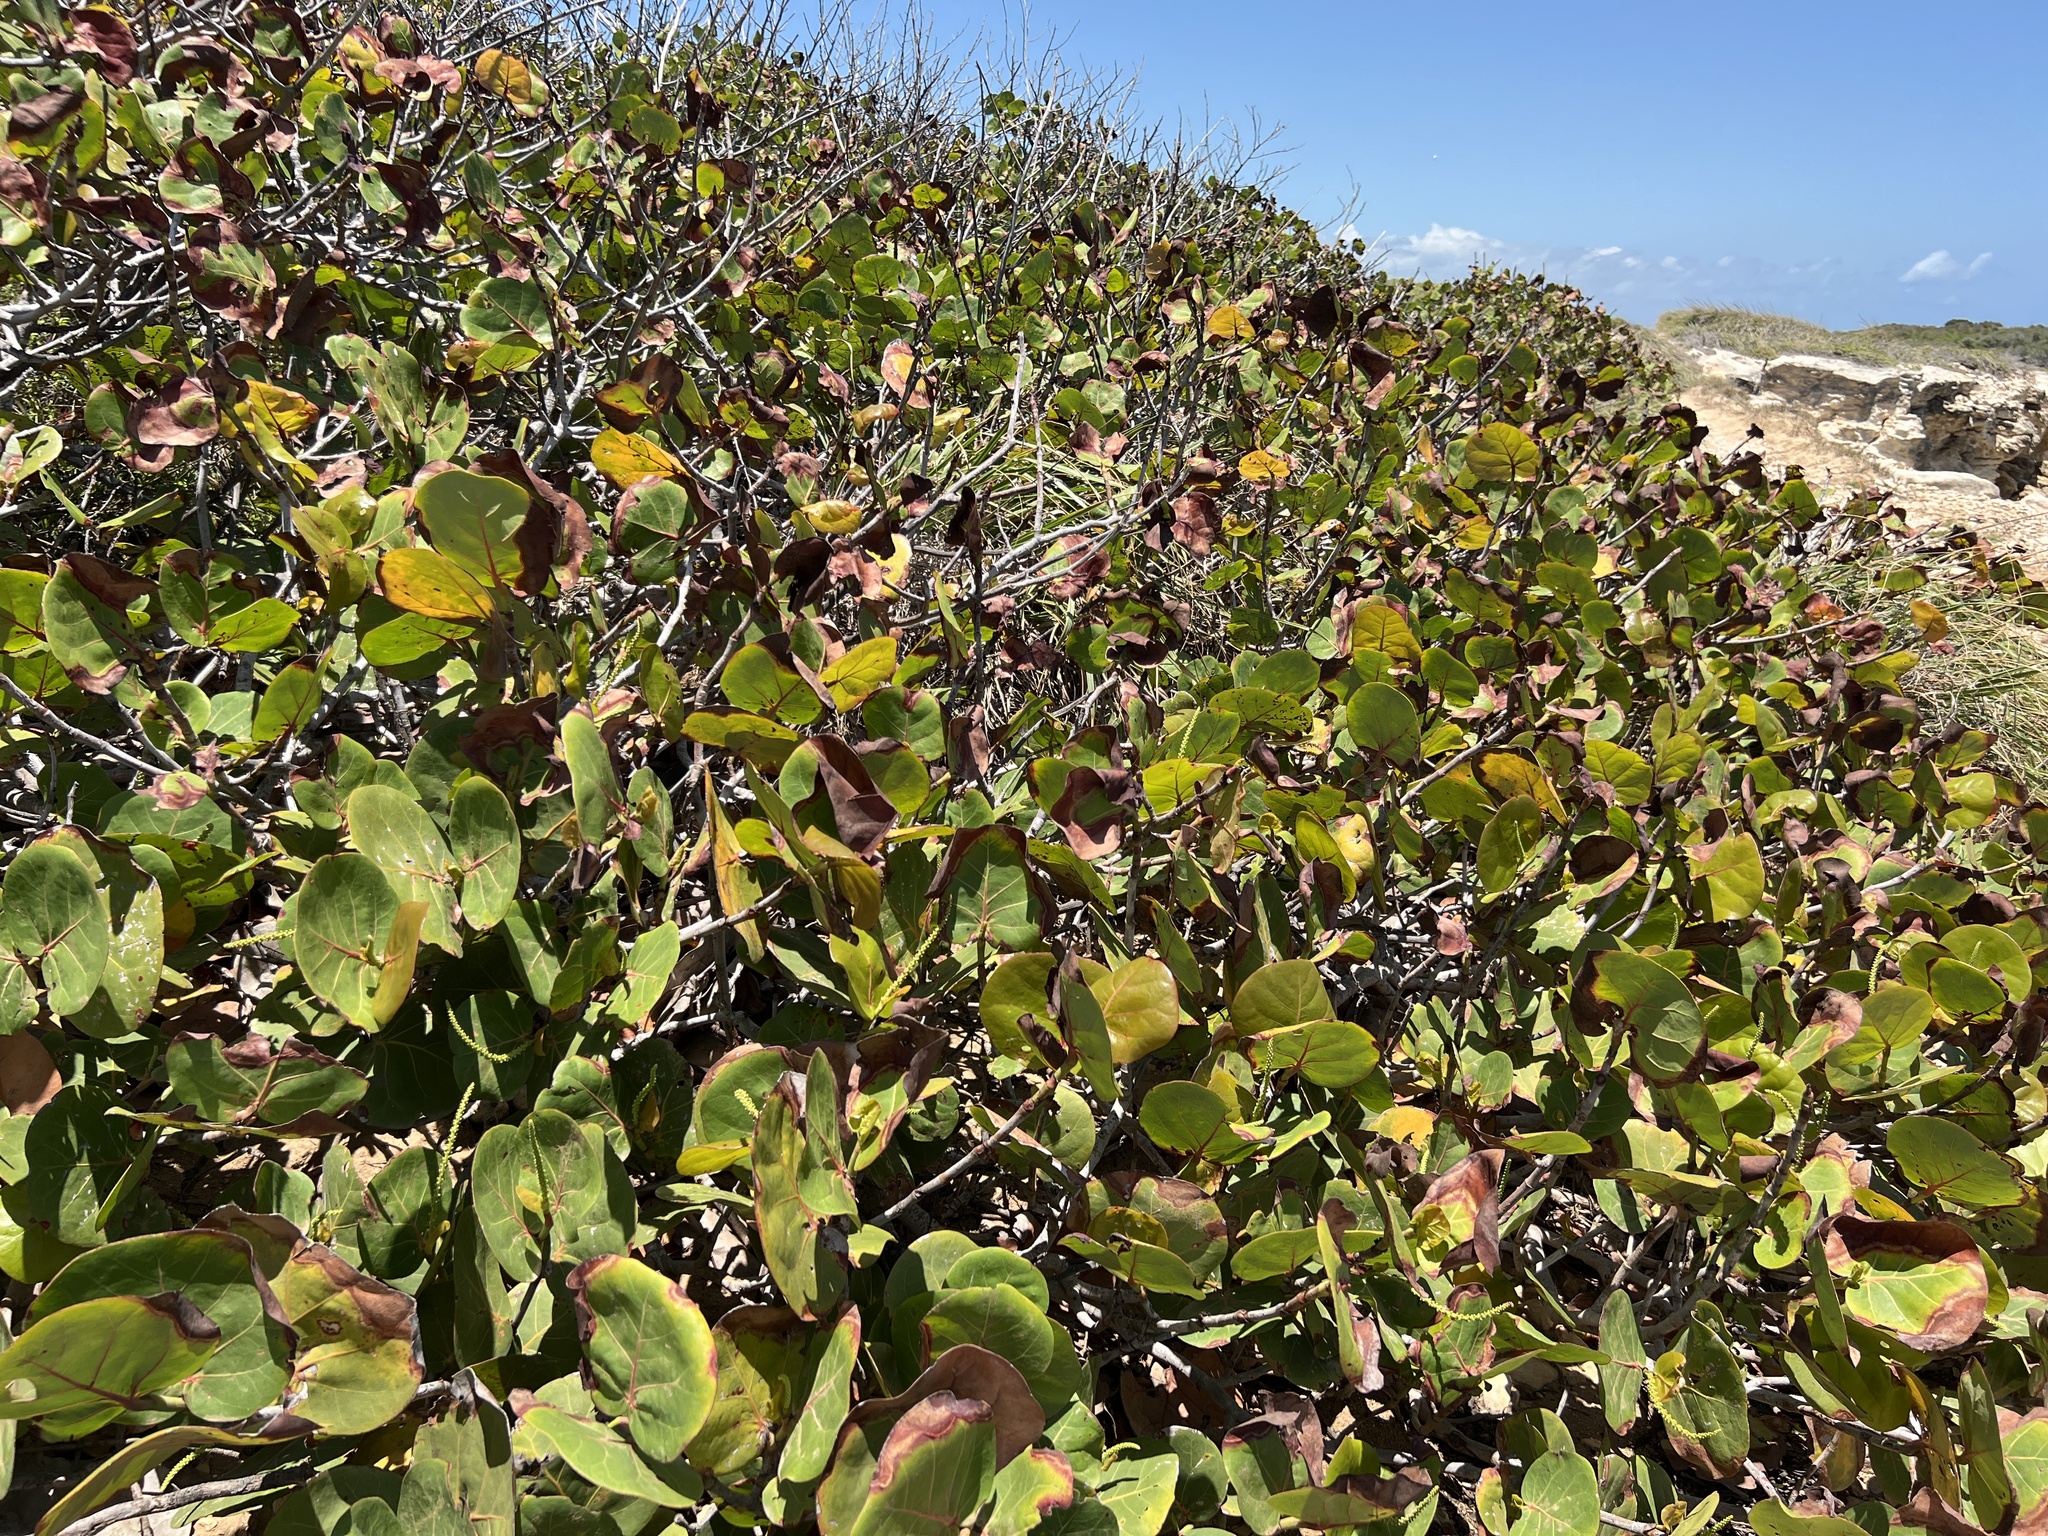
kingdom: Plantae
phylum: Tracheophyta
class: Magnoliopsida
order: Caryophyllales
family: Polygonaceae
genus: Coccoloba
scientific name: Coccoloba uvifera
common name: Seagrape
